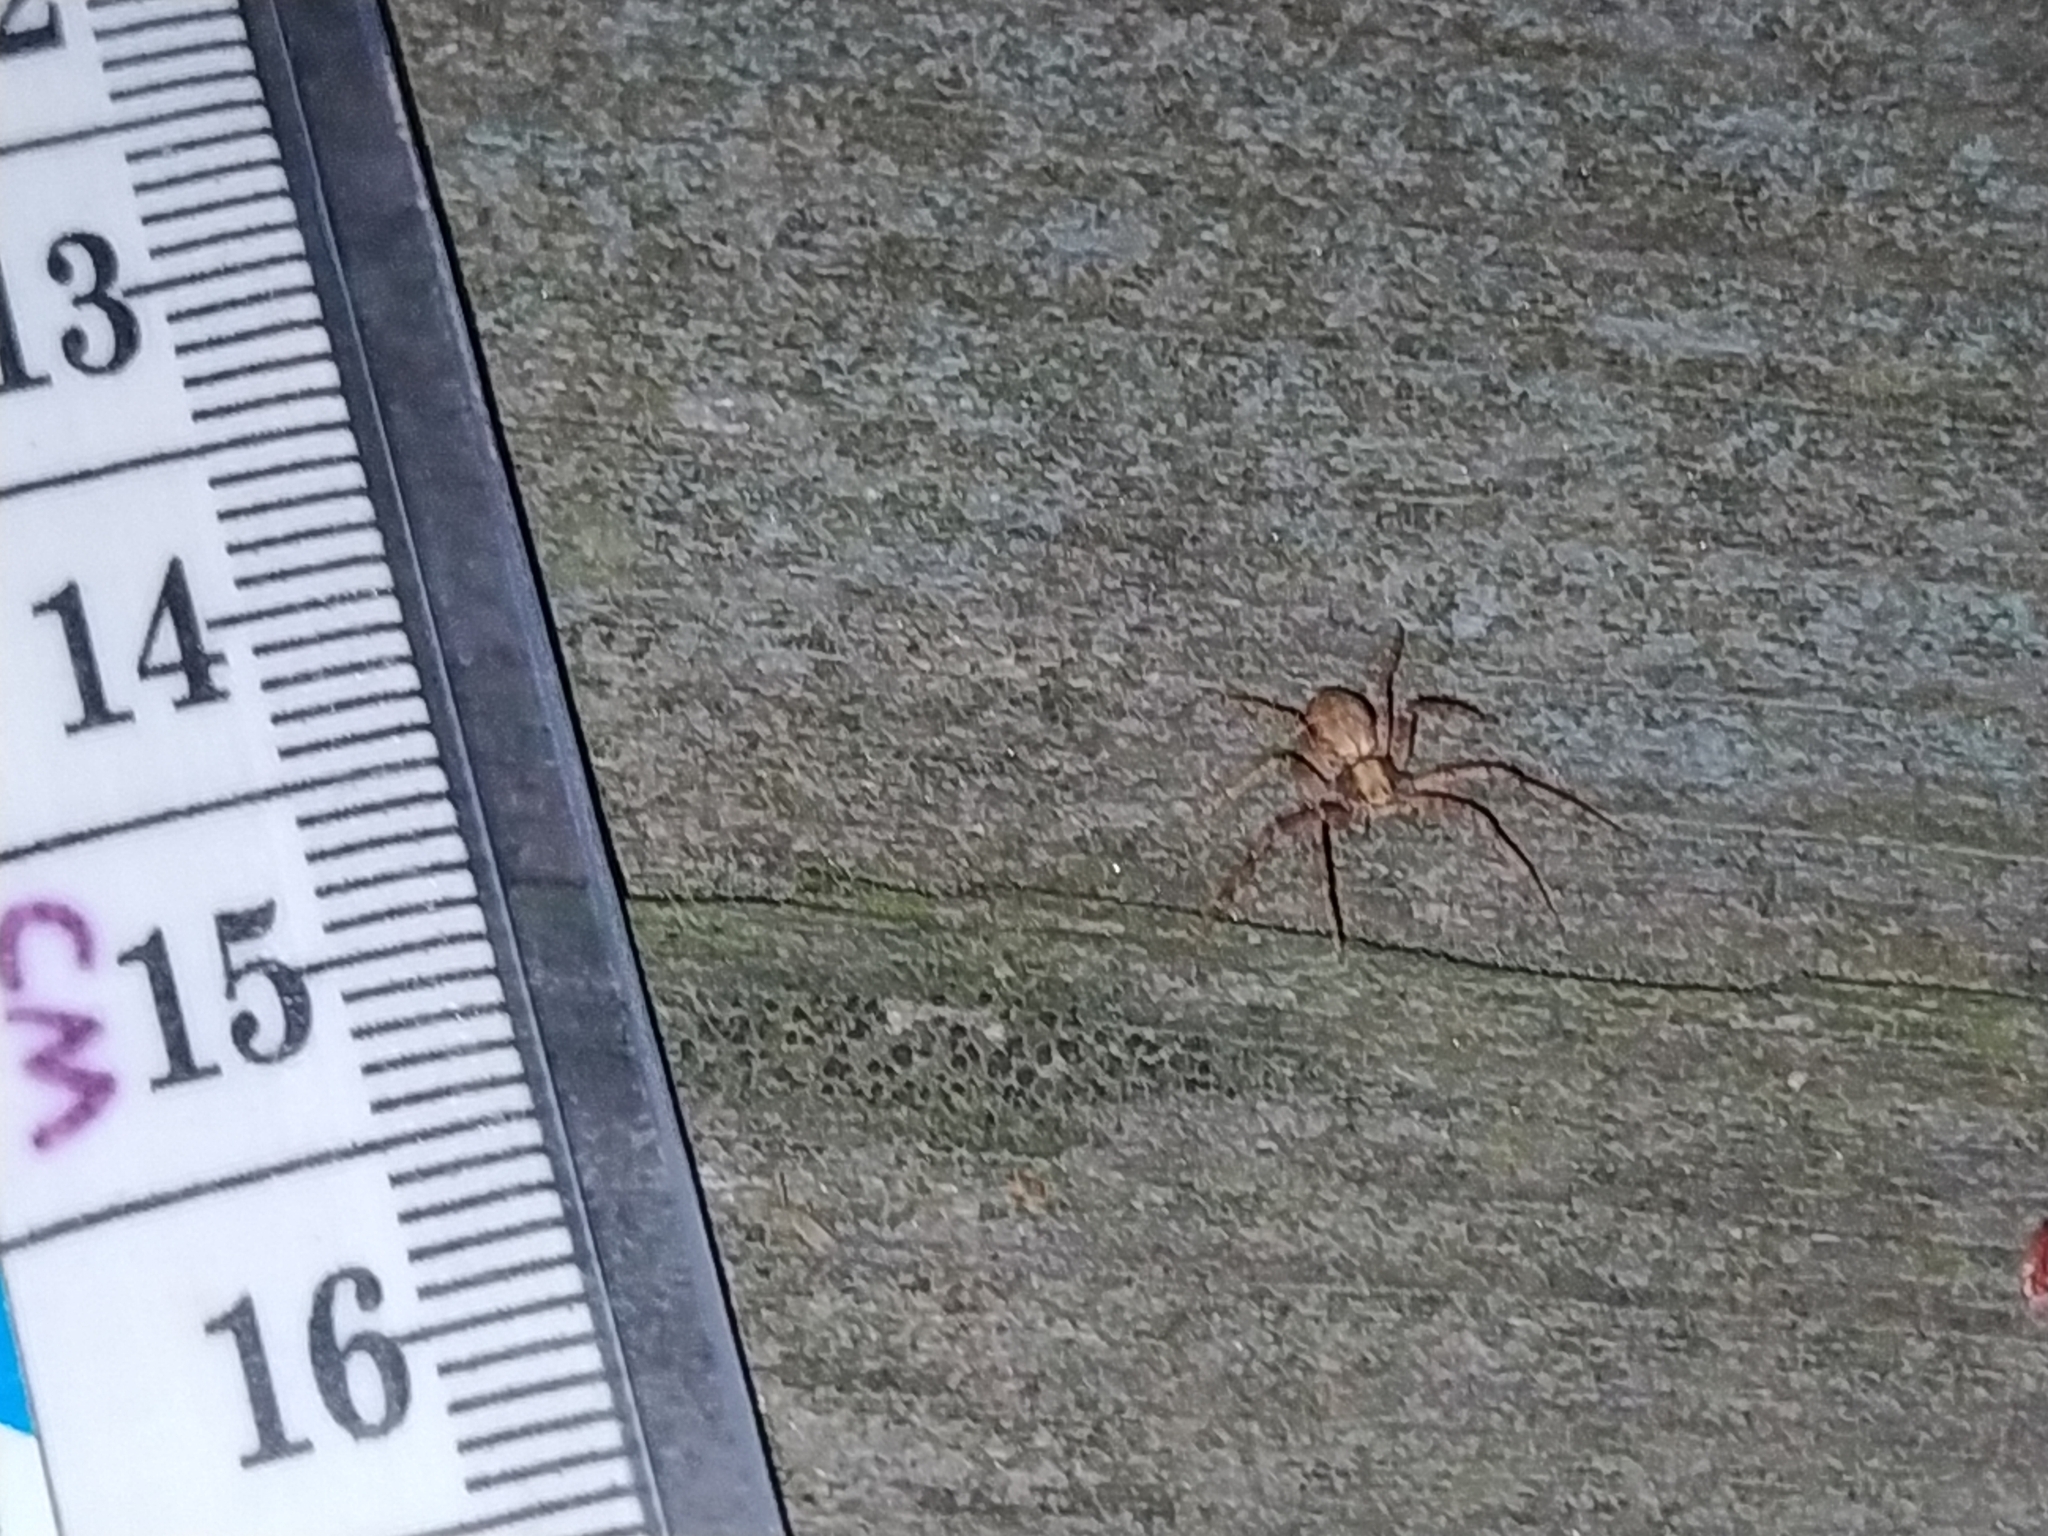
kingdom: Animalia
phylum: Arthropoda
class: Arachnida
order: Araneae
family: Philodromidae
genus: Philodromus
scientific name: Philodromus
